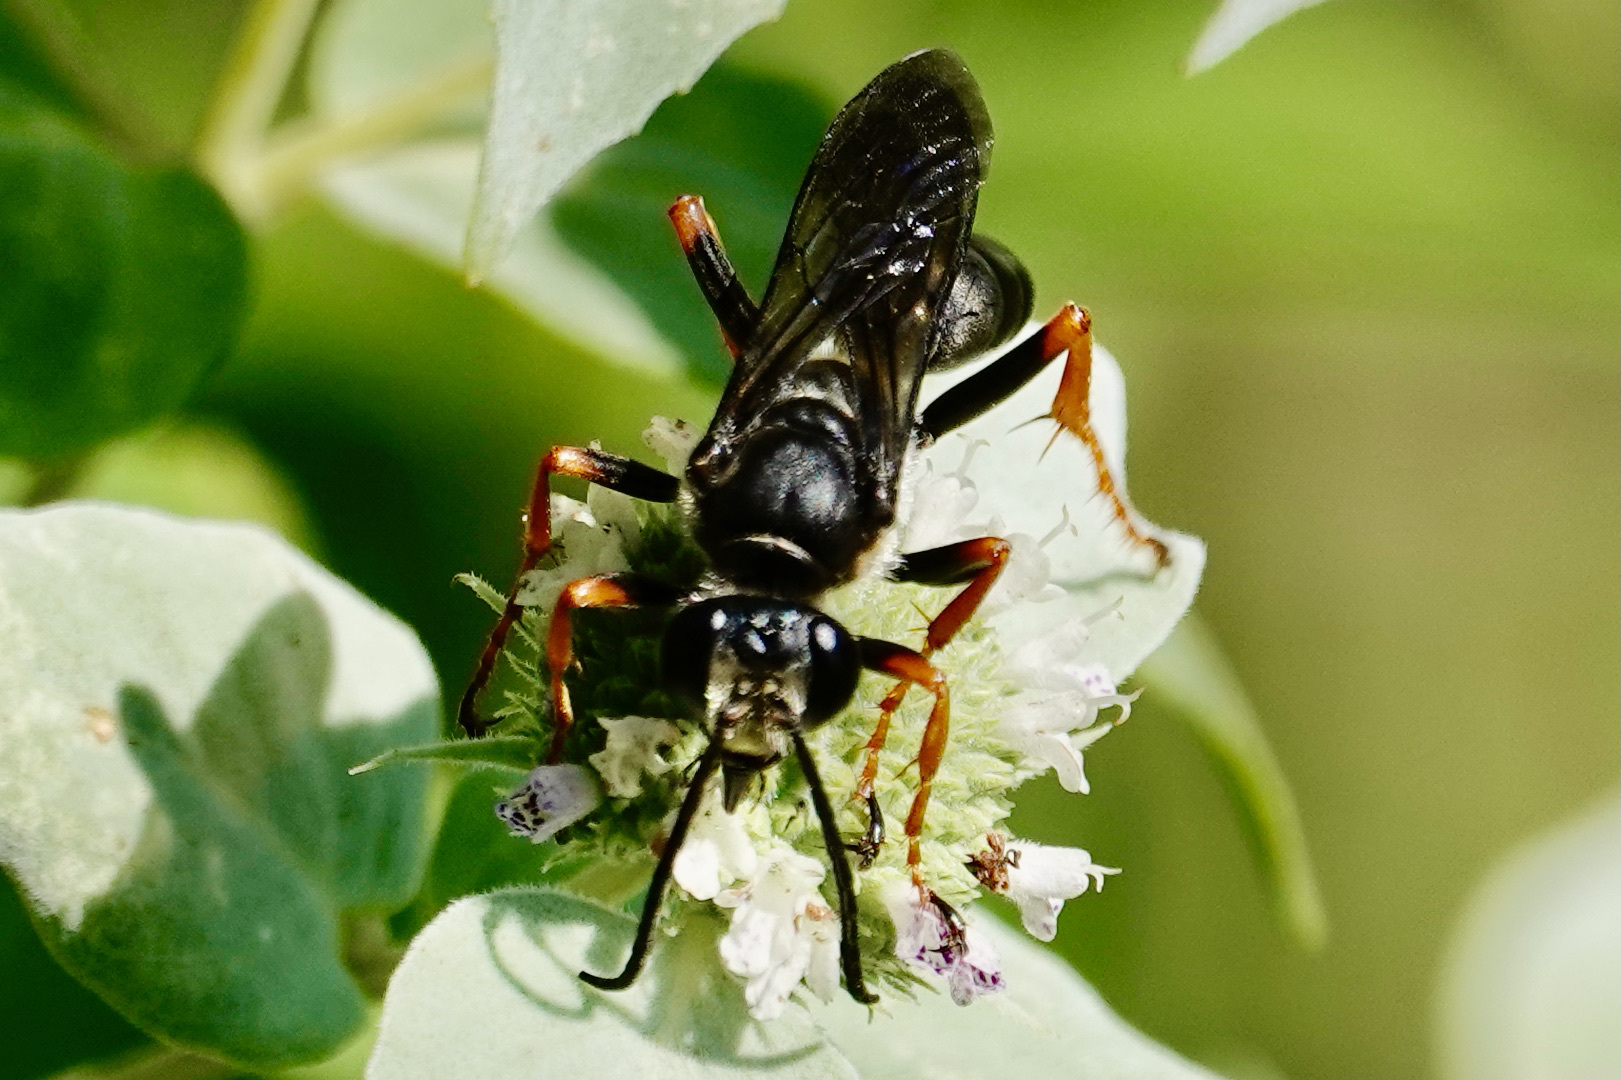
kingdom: Animalia
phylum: Arthropoda
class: Insecta
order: Hymenoptera
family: Sphecidae
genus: Sphex
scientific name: Sphex nudus
